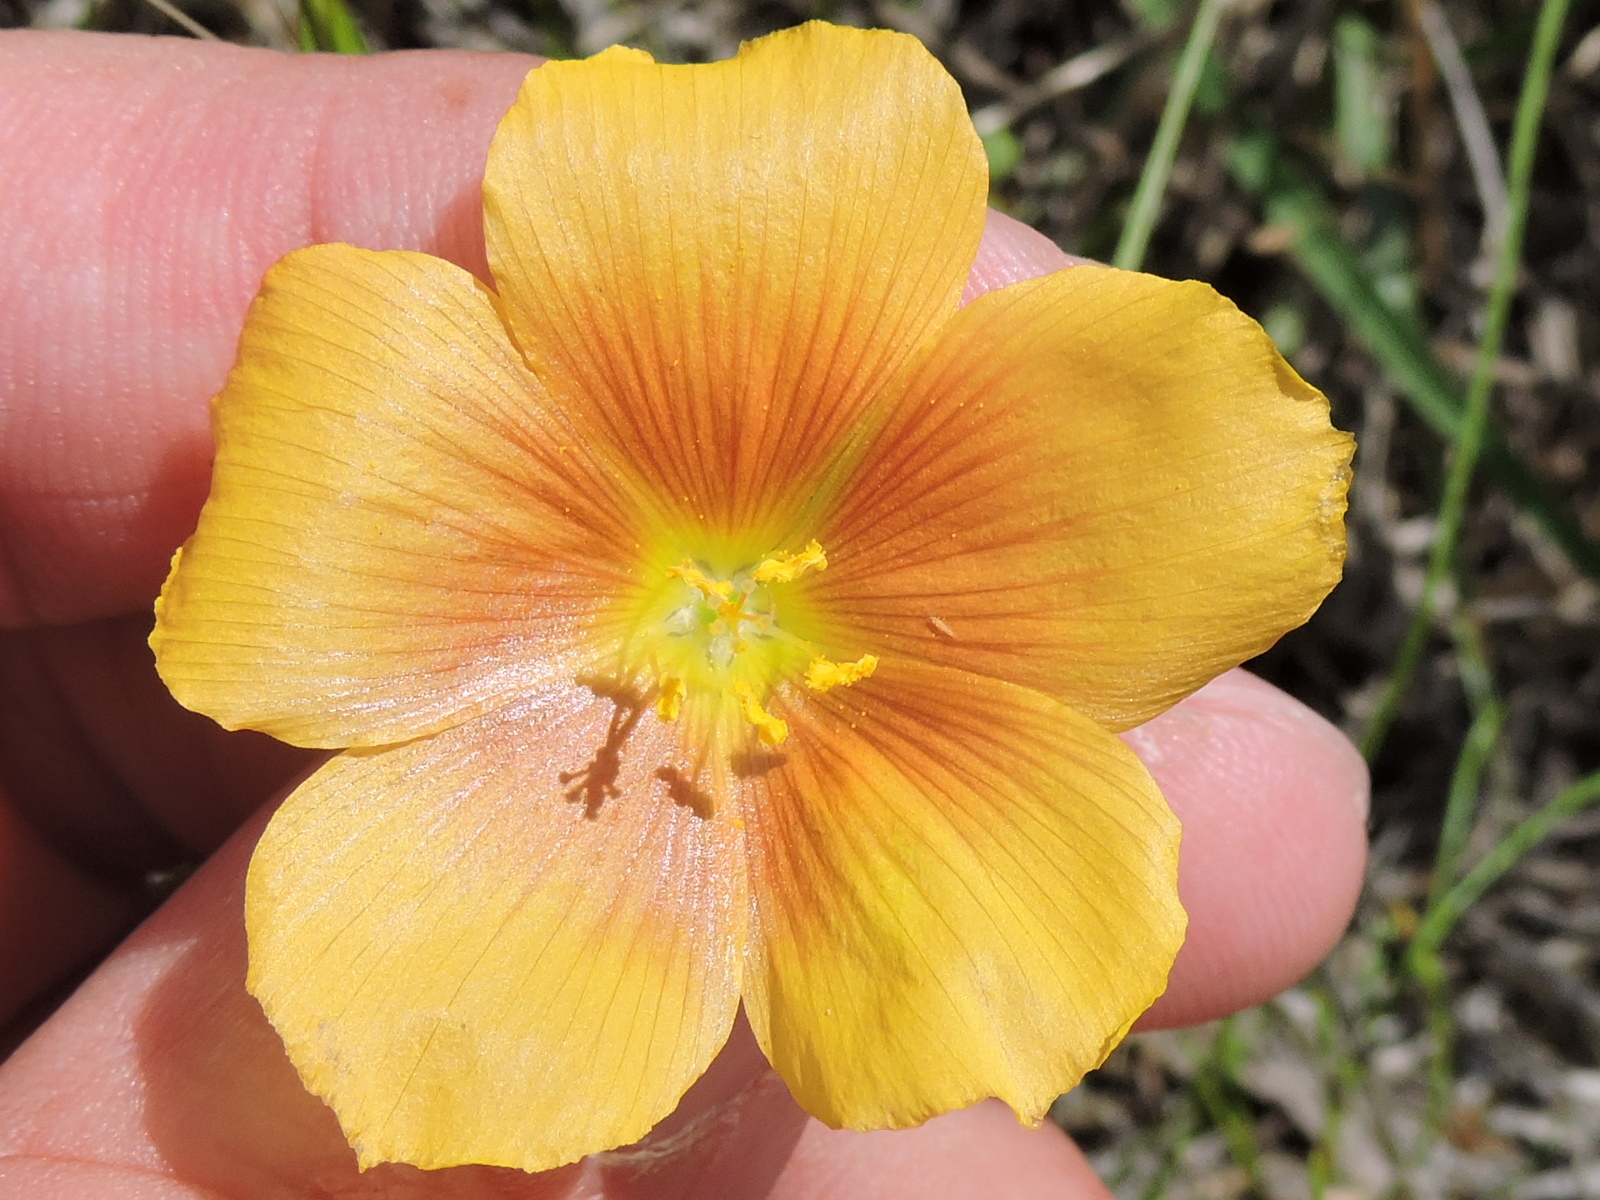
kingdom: Plantae
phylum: Tracheophyta
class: Magnoliopsida
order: Malpighiales
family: Linaceae
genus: Linum
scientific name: Linum rigidum
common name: Stiff-stem flax
